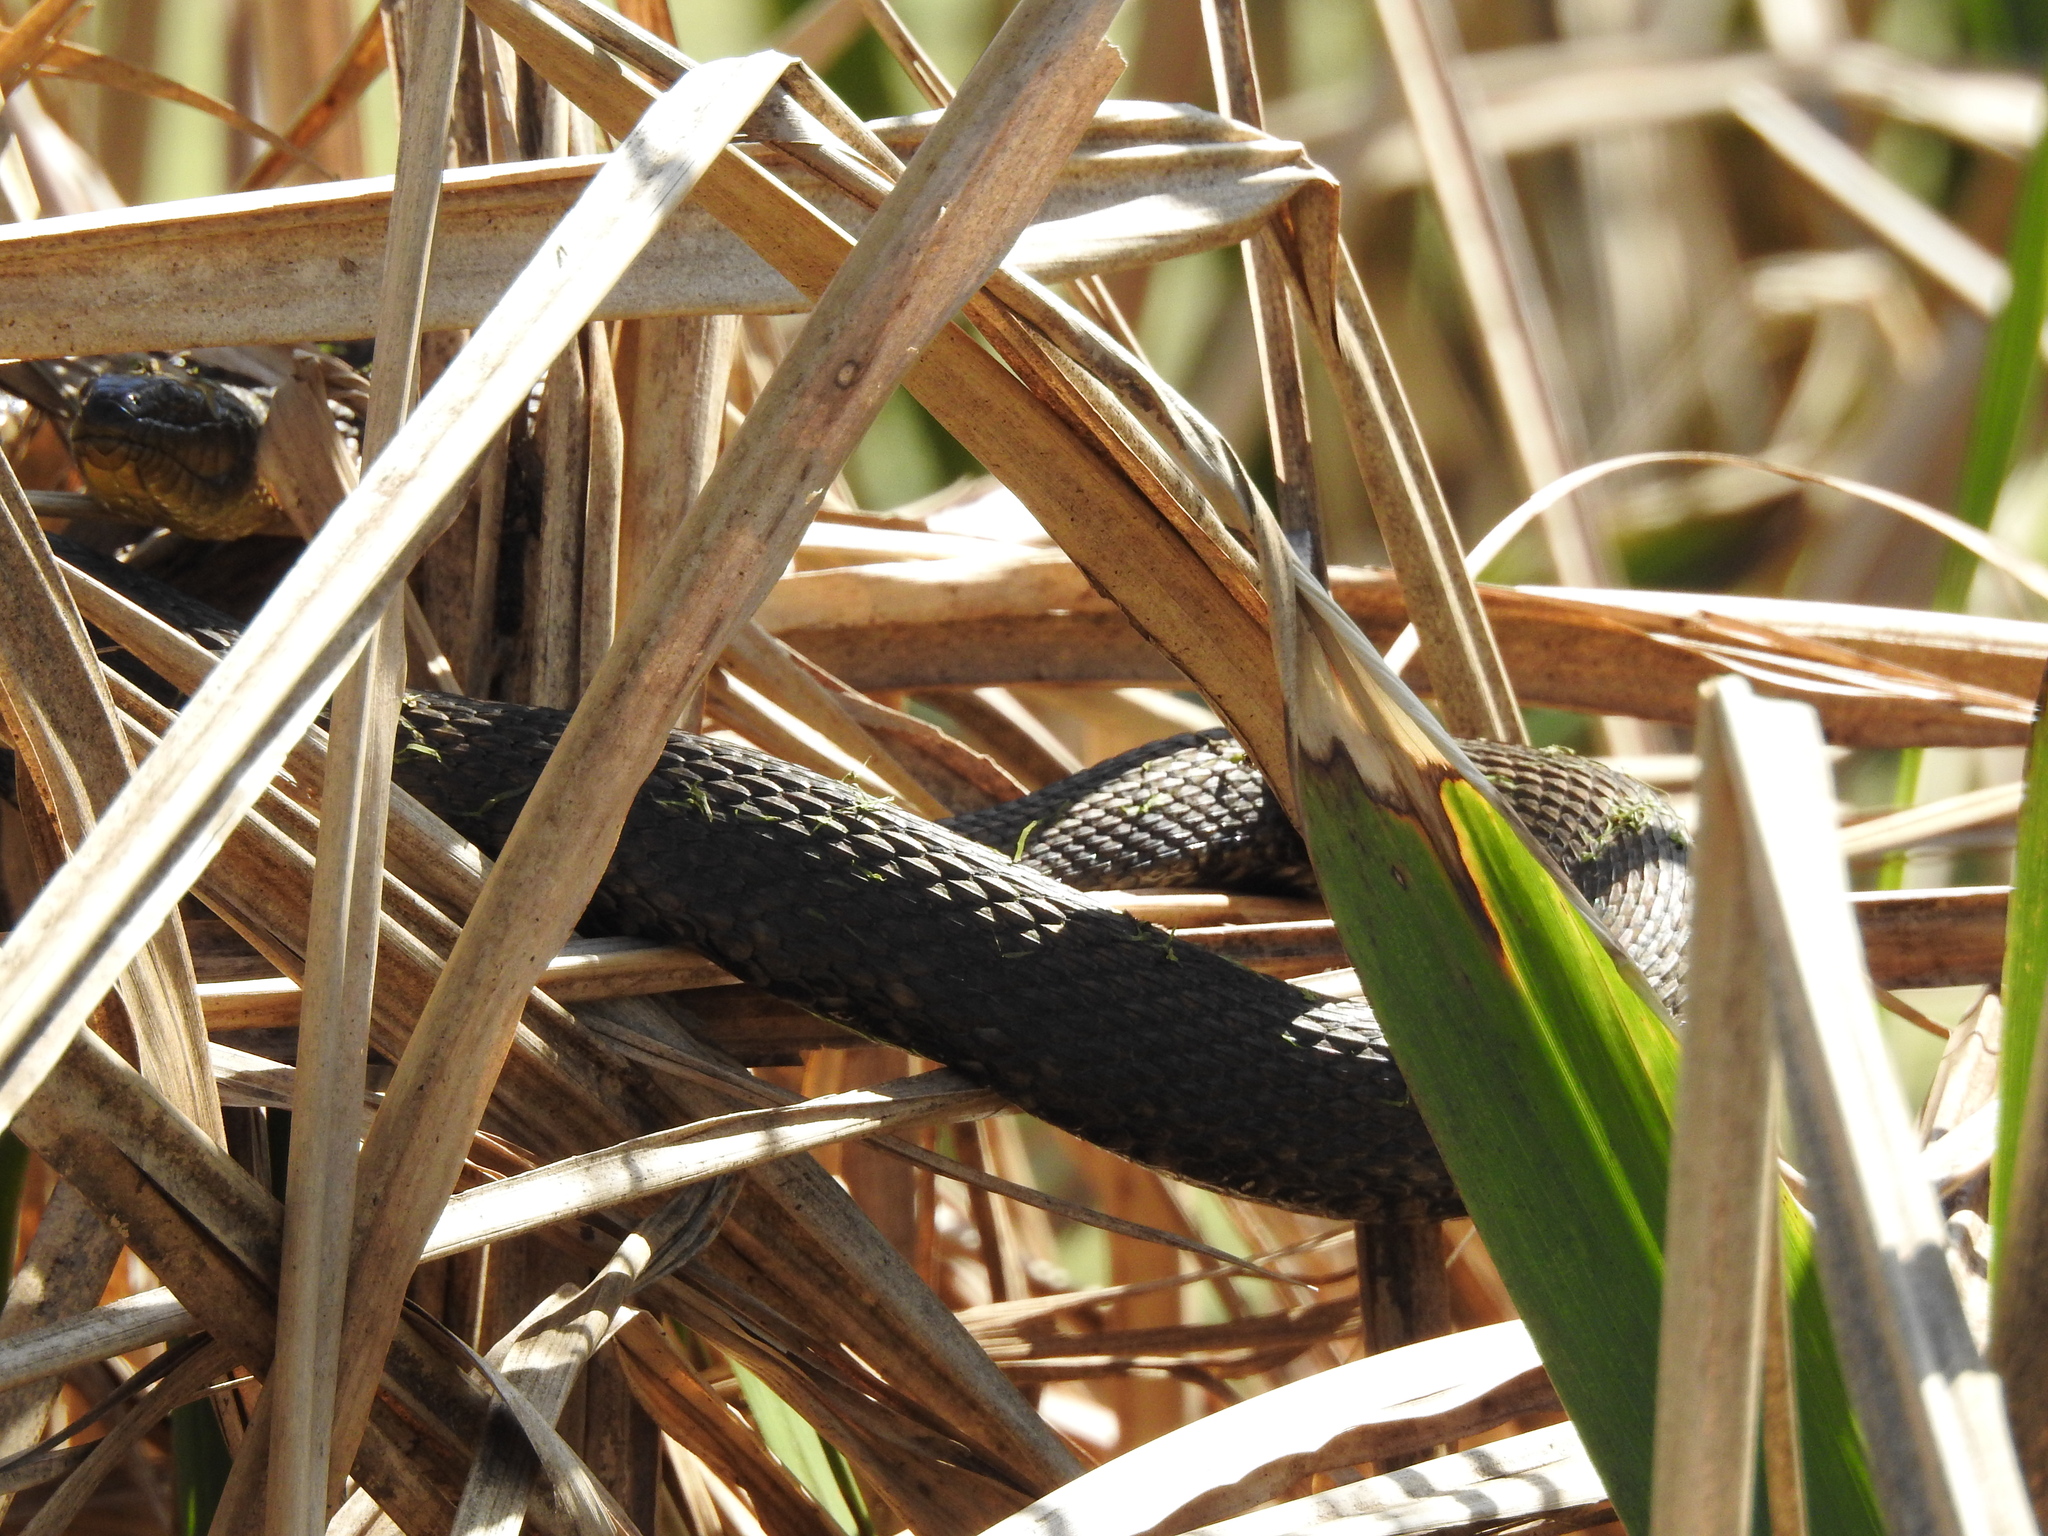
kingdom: Animalia
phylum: Chordata
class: Squamata
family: Colubridae
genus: Nerodia
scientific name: Nerodia cyclopion
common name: Mississippi green water snake
